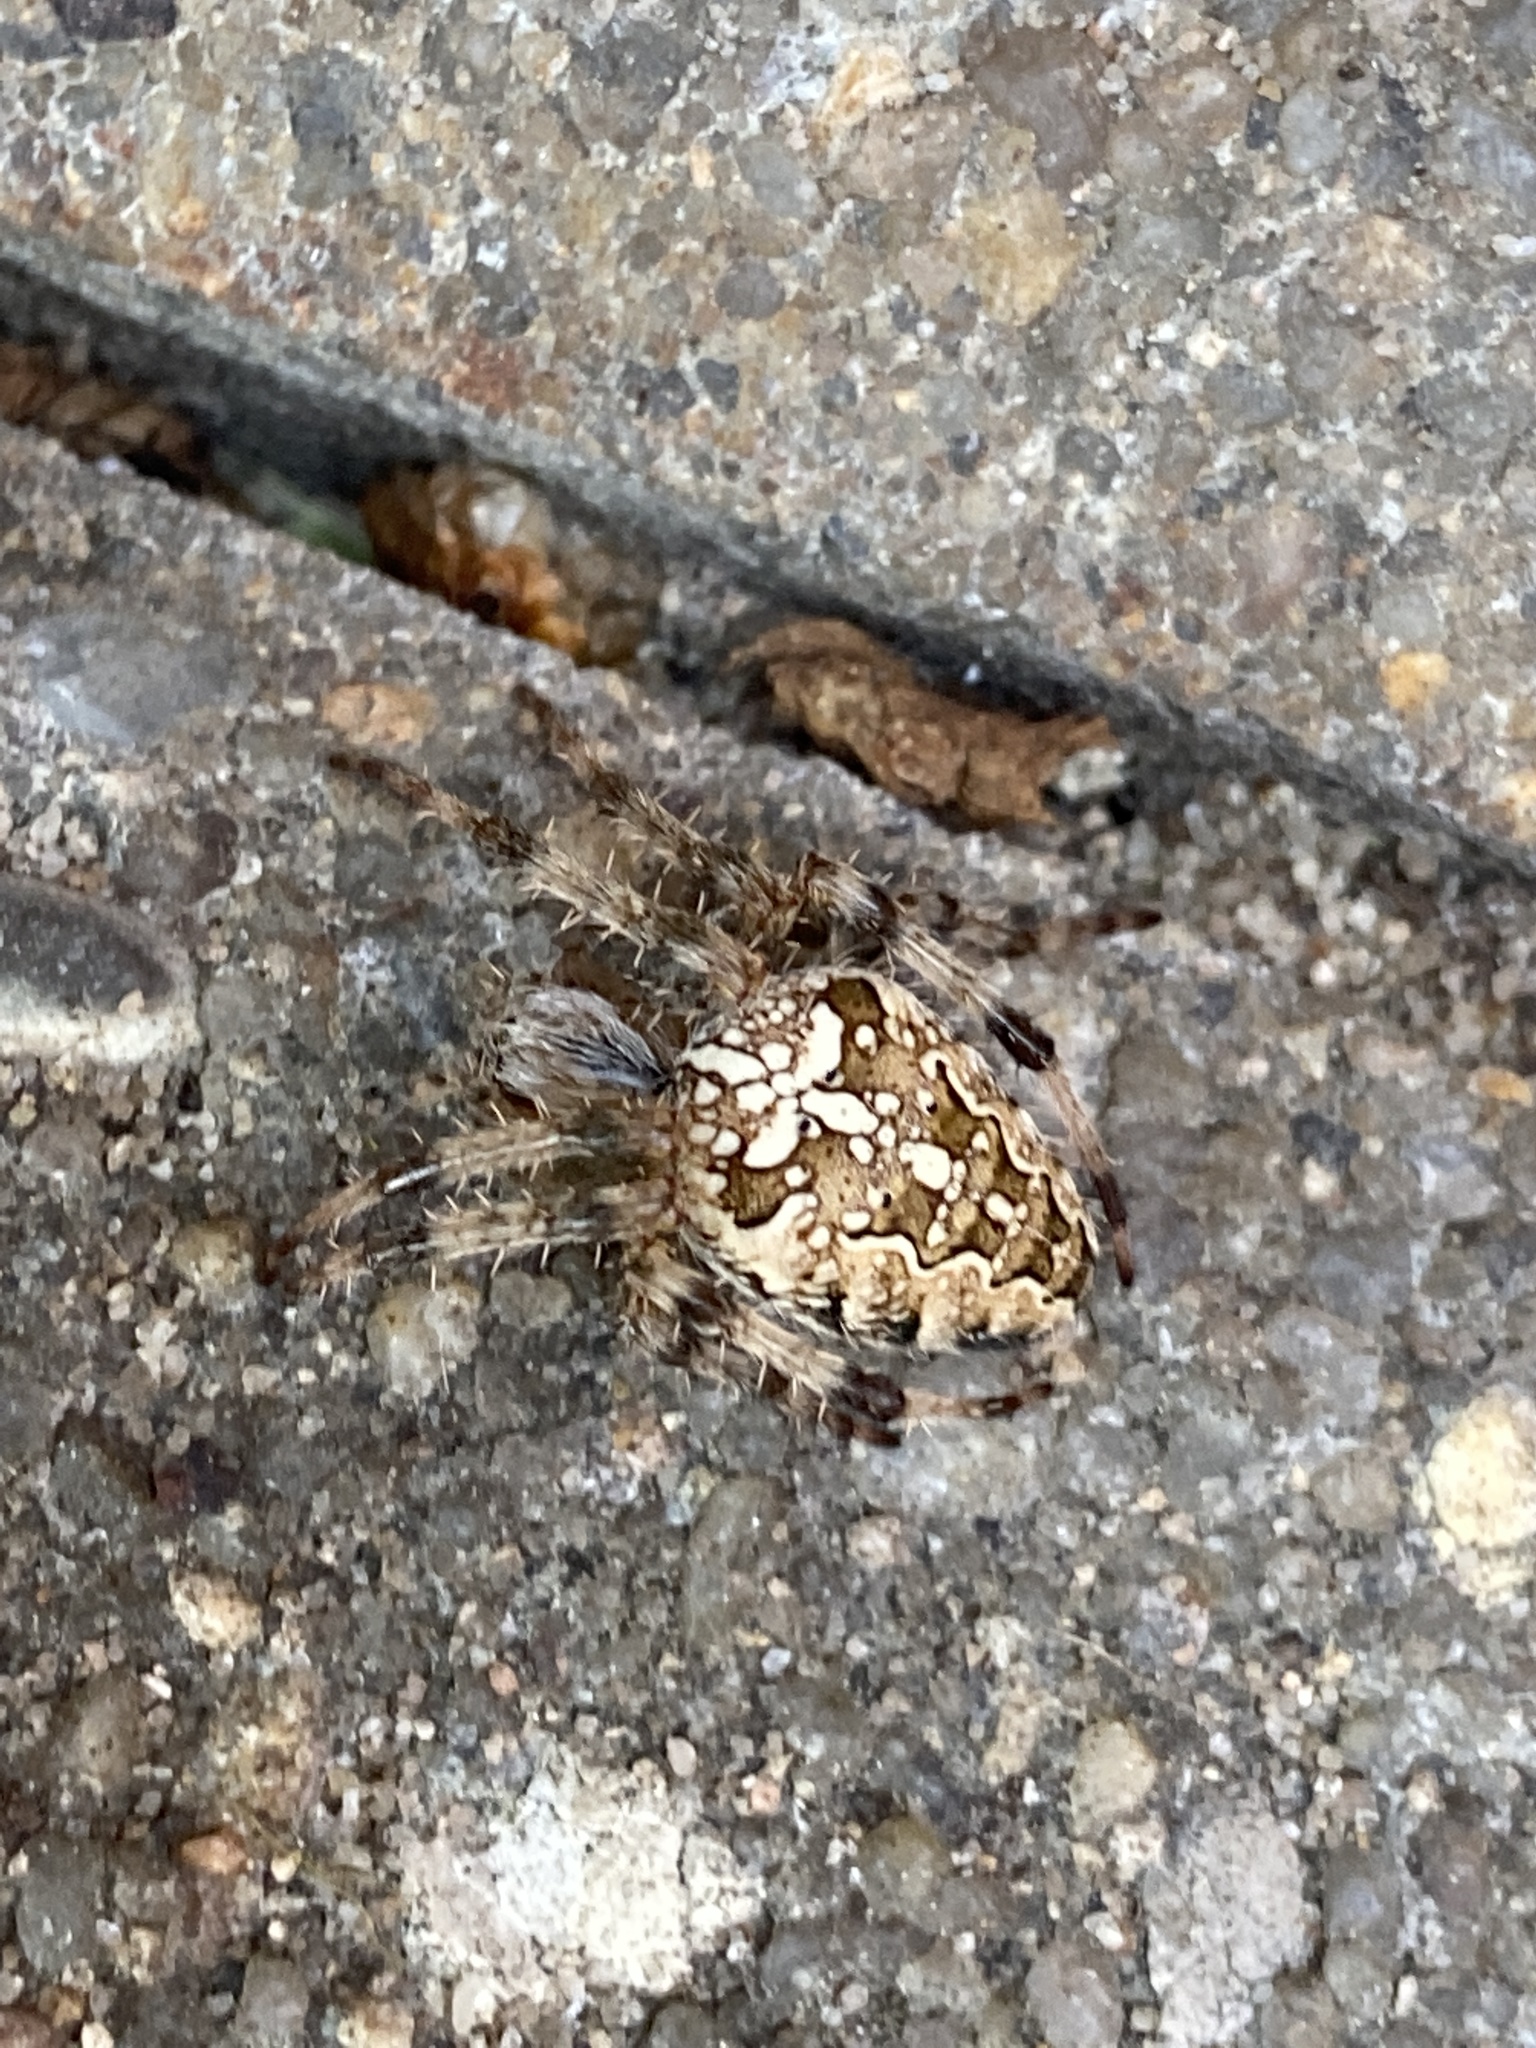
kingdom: Animalia
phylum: Arthropoda
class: Arachnida
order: Araneae
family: Araneidae
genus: Araneus
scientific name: Araneus diadematus
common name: Cross orbweaver
